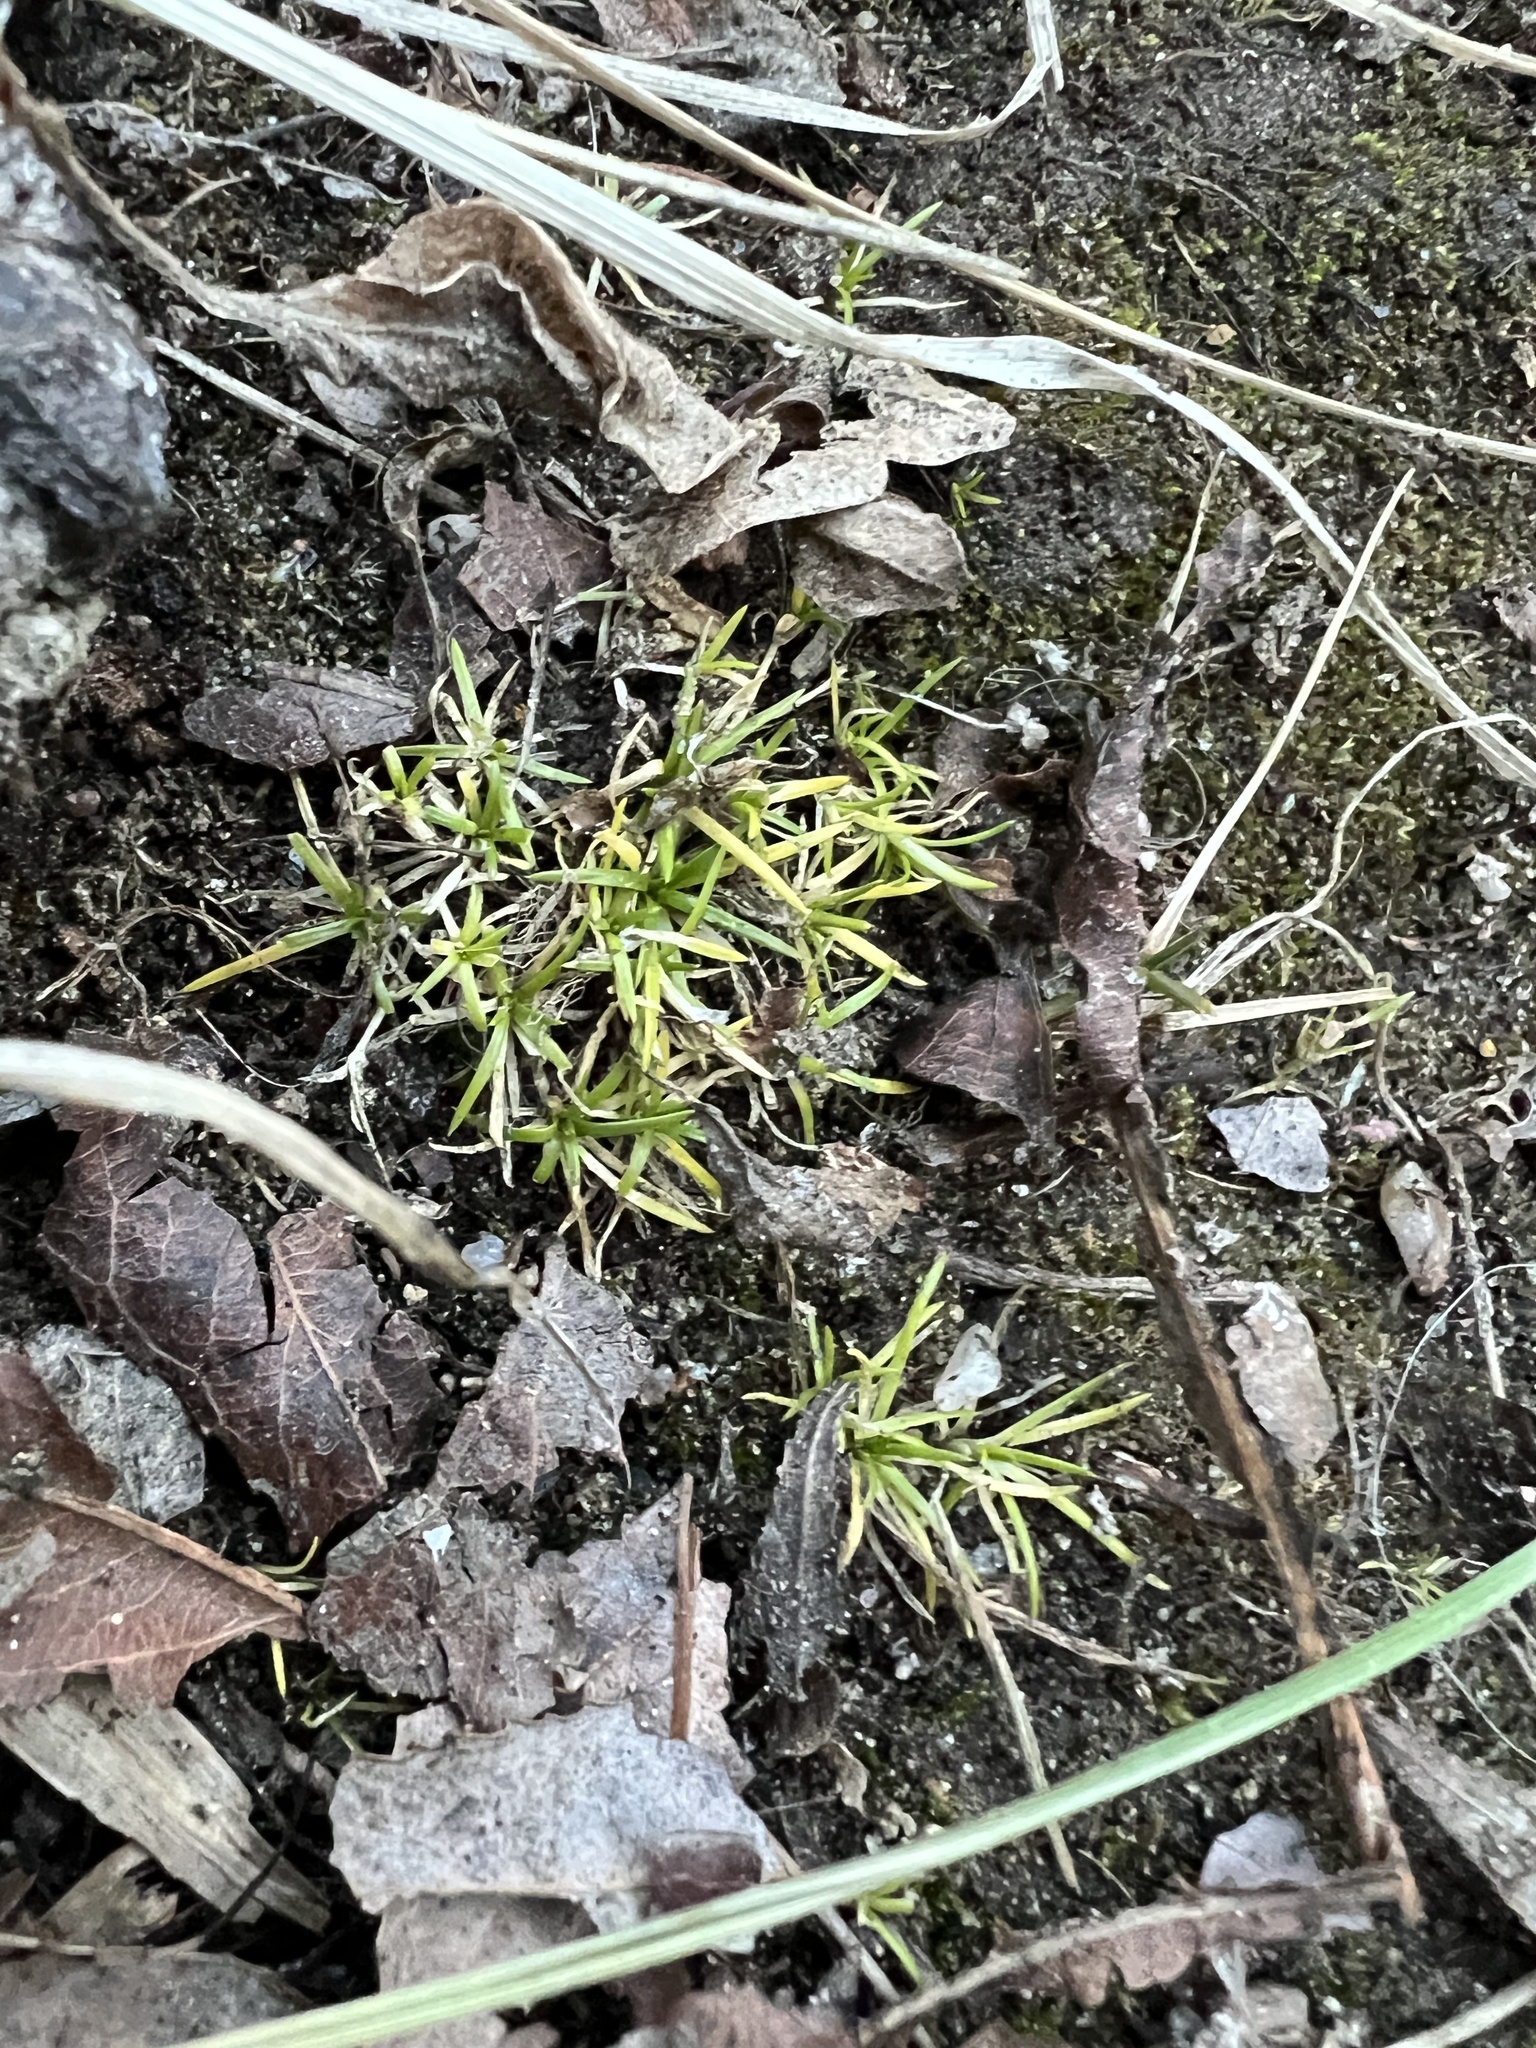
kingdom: Plantae
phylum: Tracheophyta
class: Magnoliopsida
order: Caryophyllales
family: Caryophyllaceae
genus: Sagina
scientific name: Sagina procumbens
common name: Procumbent pearlwort
